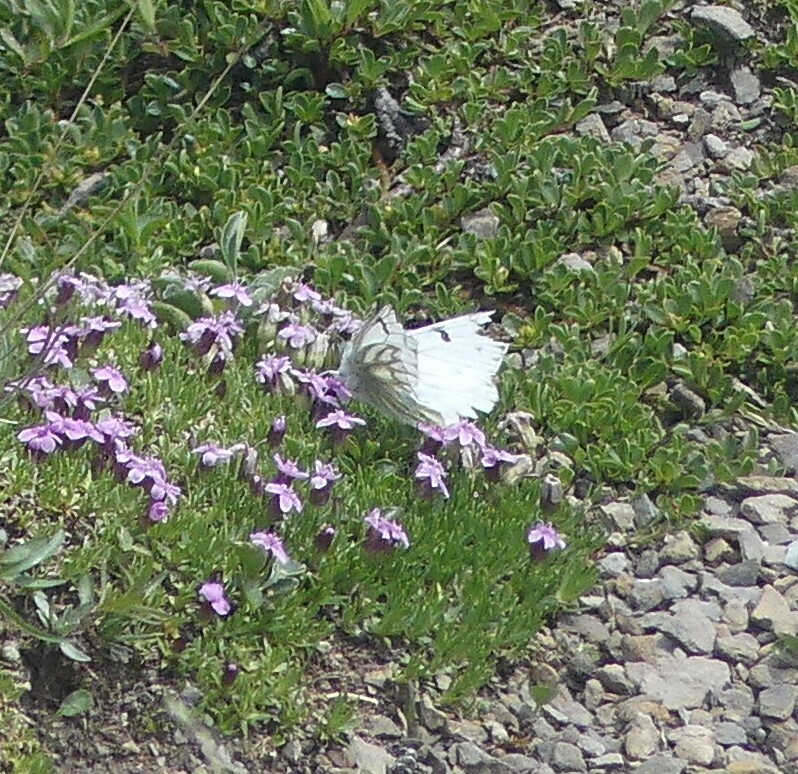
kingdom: Animalia
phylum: Arthropoda
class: Insecta
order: Lepidoptera
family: Pieridae
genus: Pontia
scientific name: Pontia callidice
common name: Peak white
